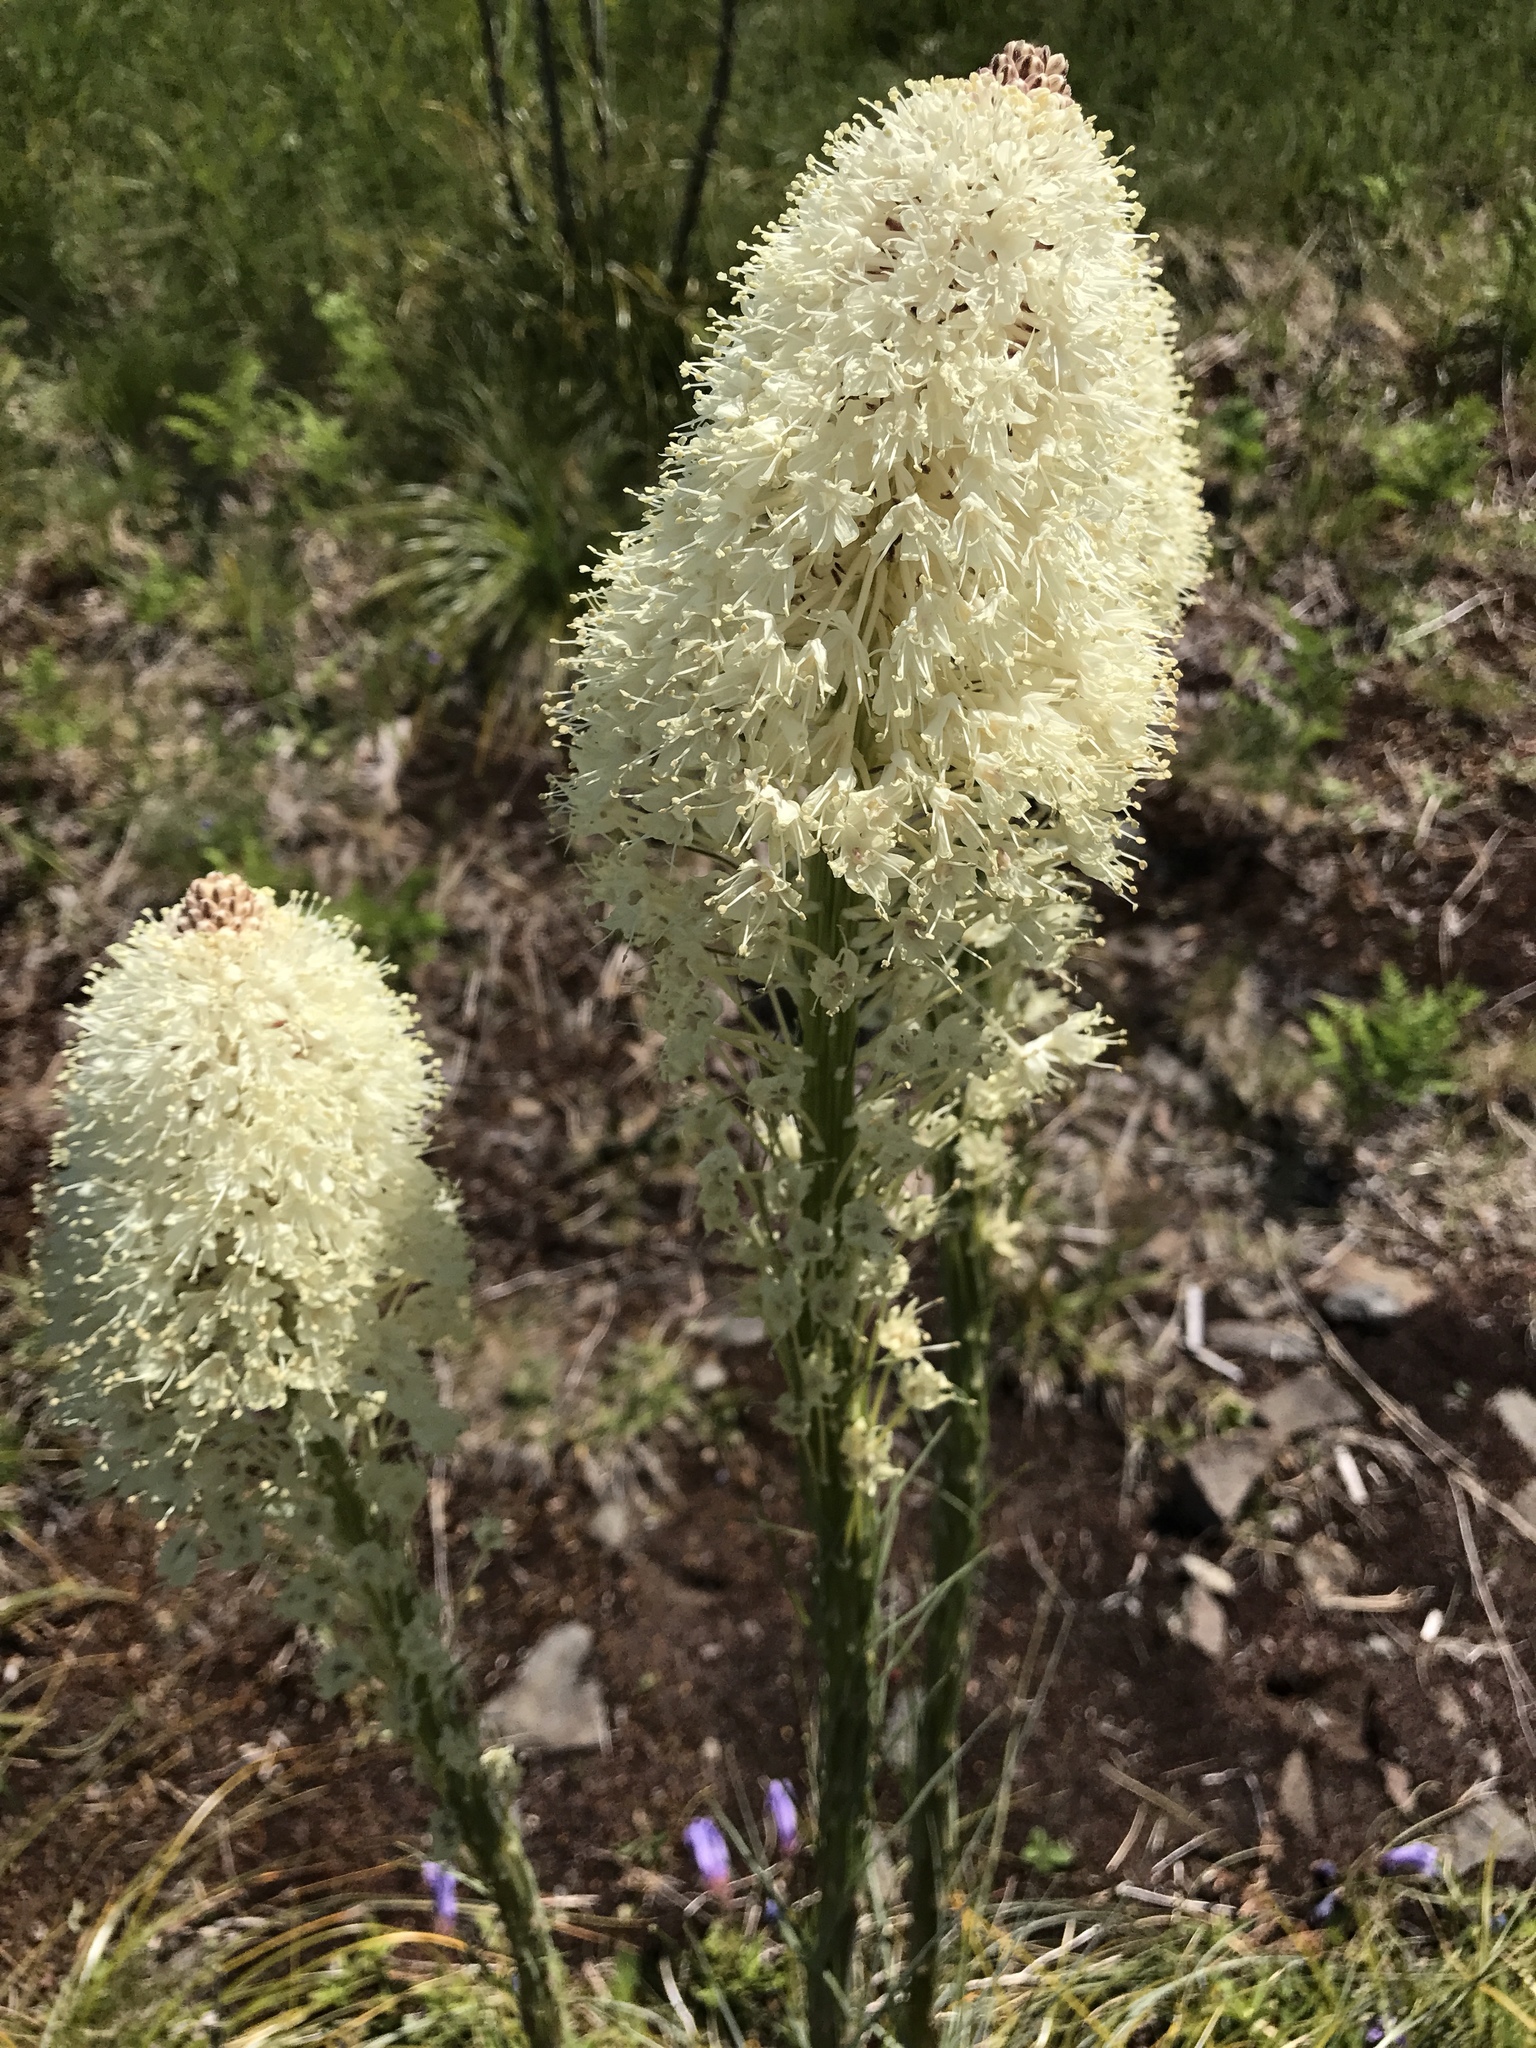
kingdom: Plantae
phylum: Tracheophyta
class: Liliopsida
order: Liliales
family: Melanthiaceae
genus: Xerophyllum
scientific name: Xerophyllum tenax
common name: Bear-grass
